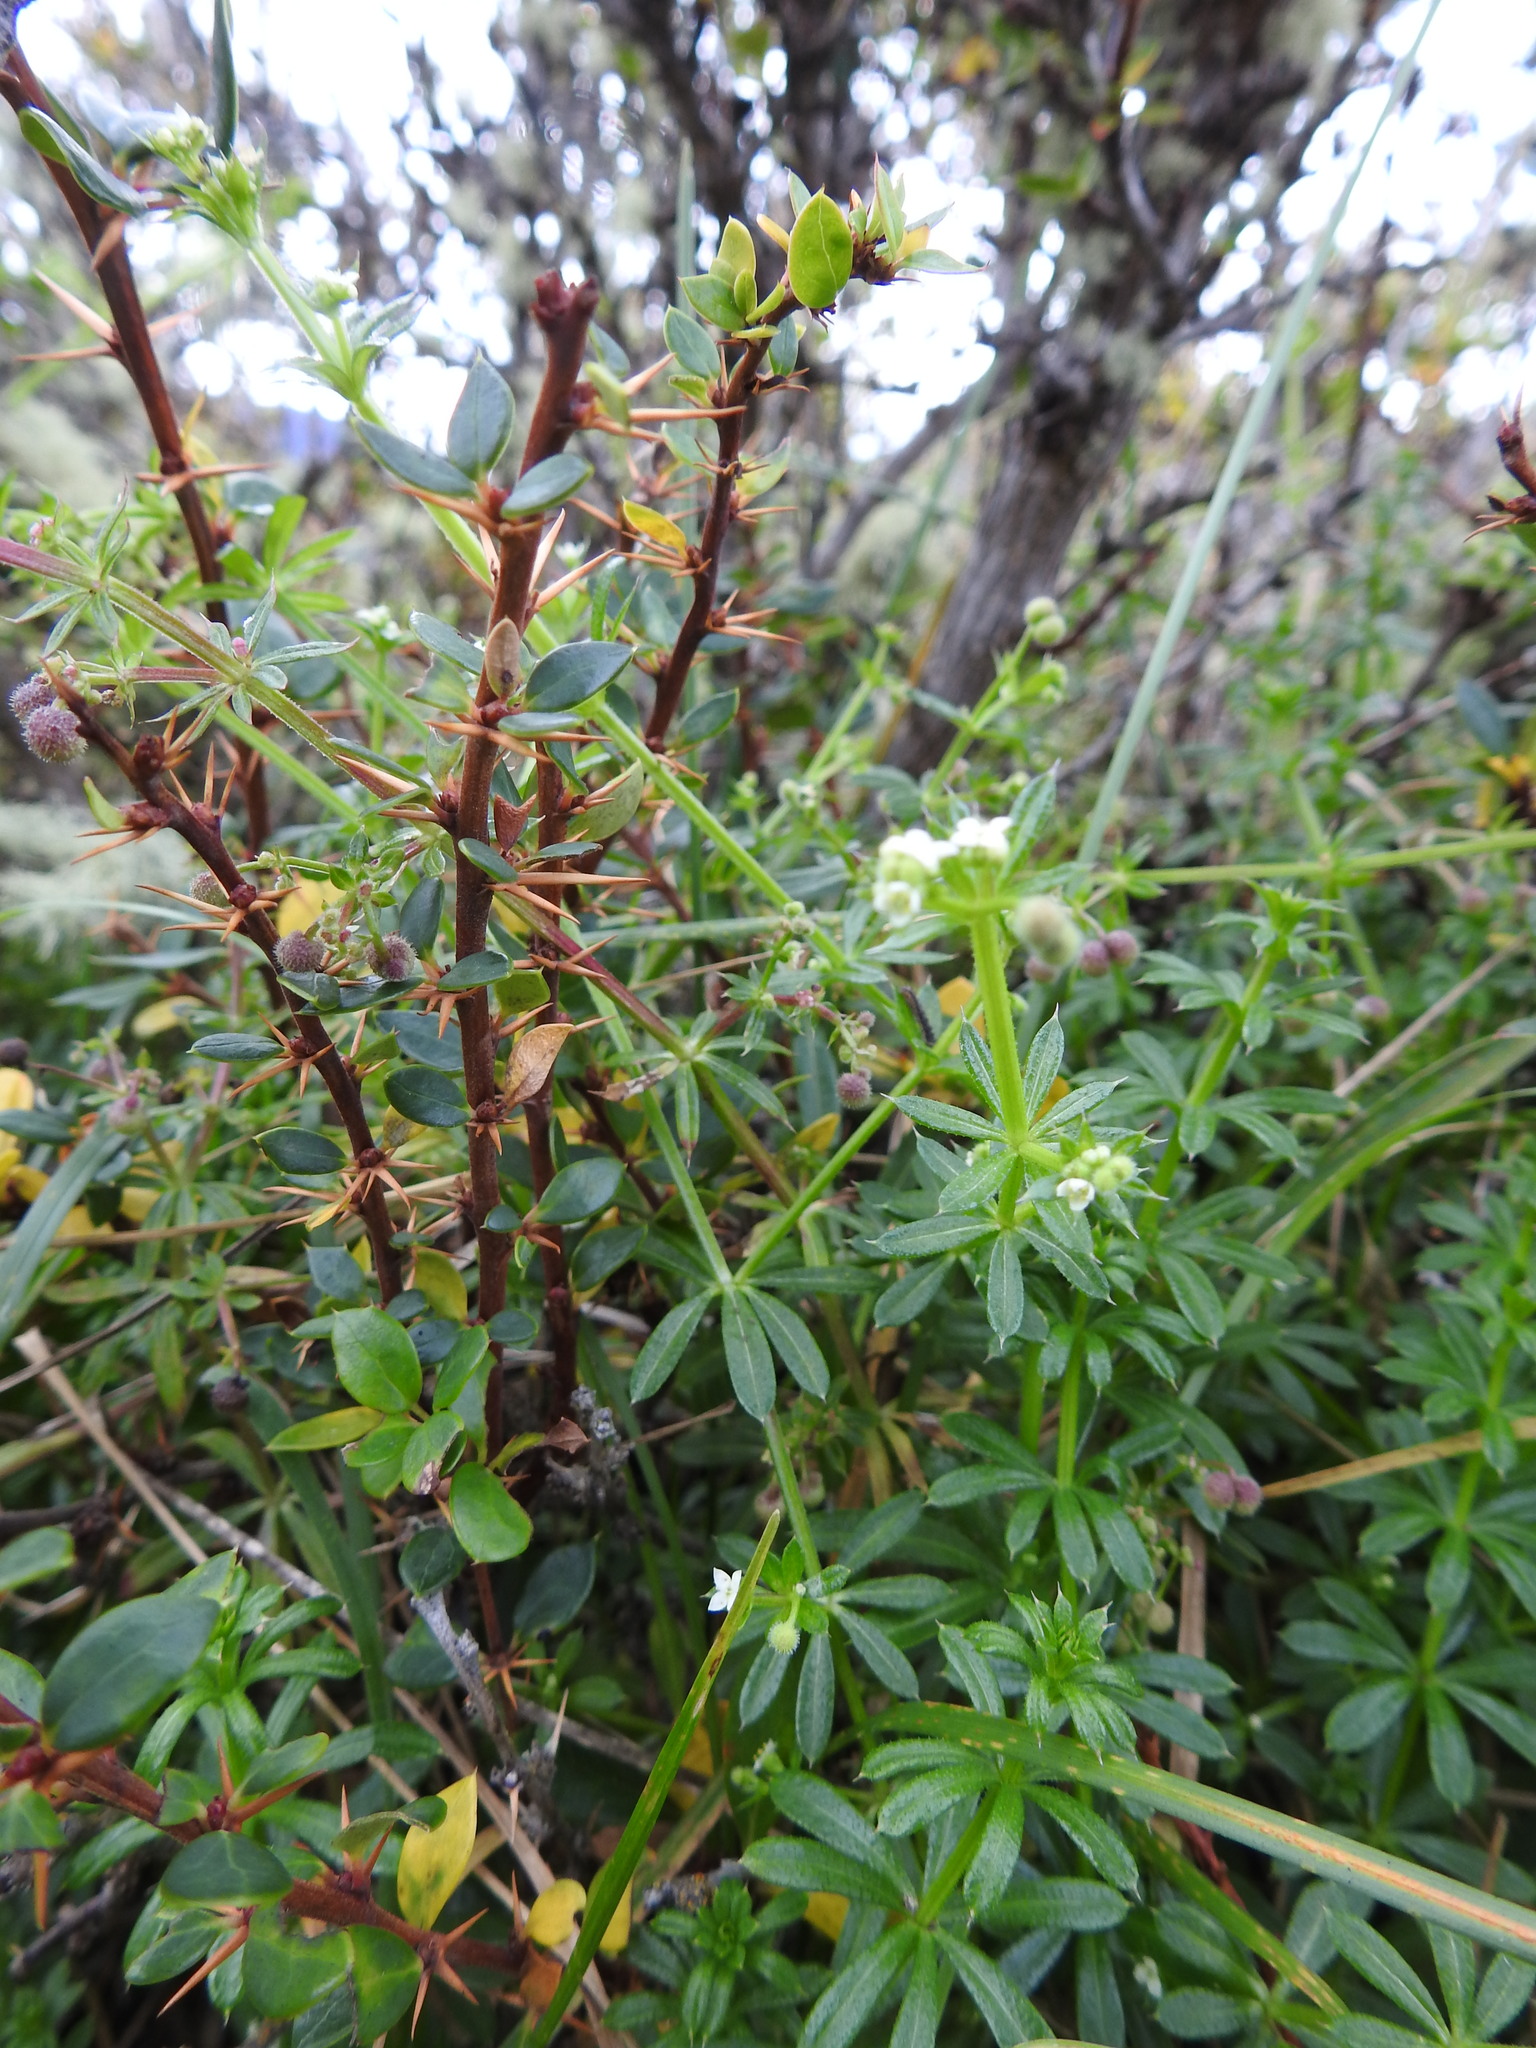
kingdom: Plantae
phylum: Tracheophyta
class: Magnoliopsida
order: Ranunculales
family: Berberidaceae
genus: Berberis
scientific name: Berberis microphylla
